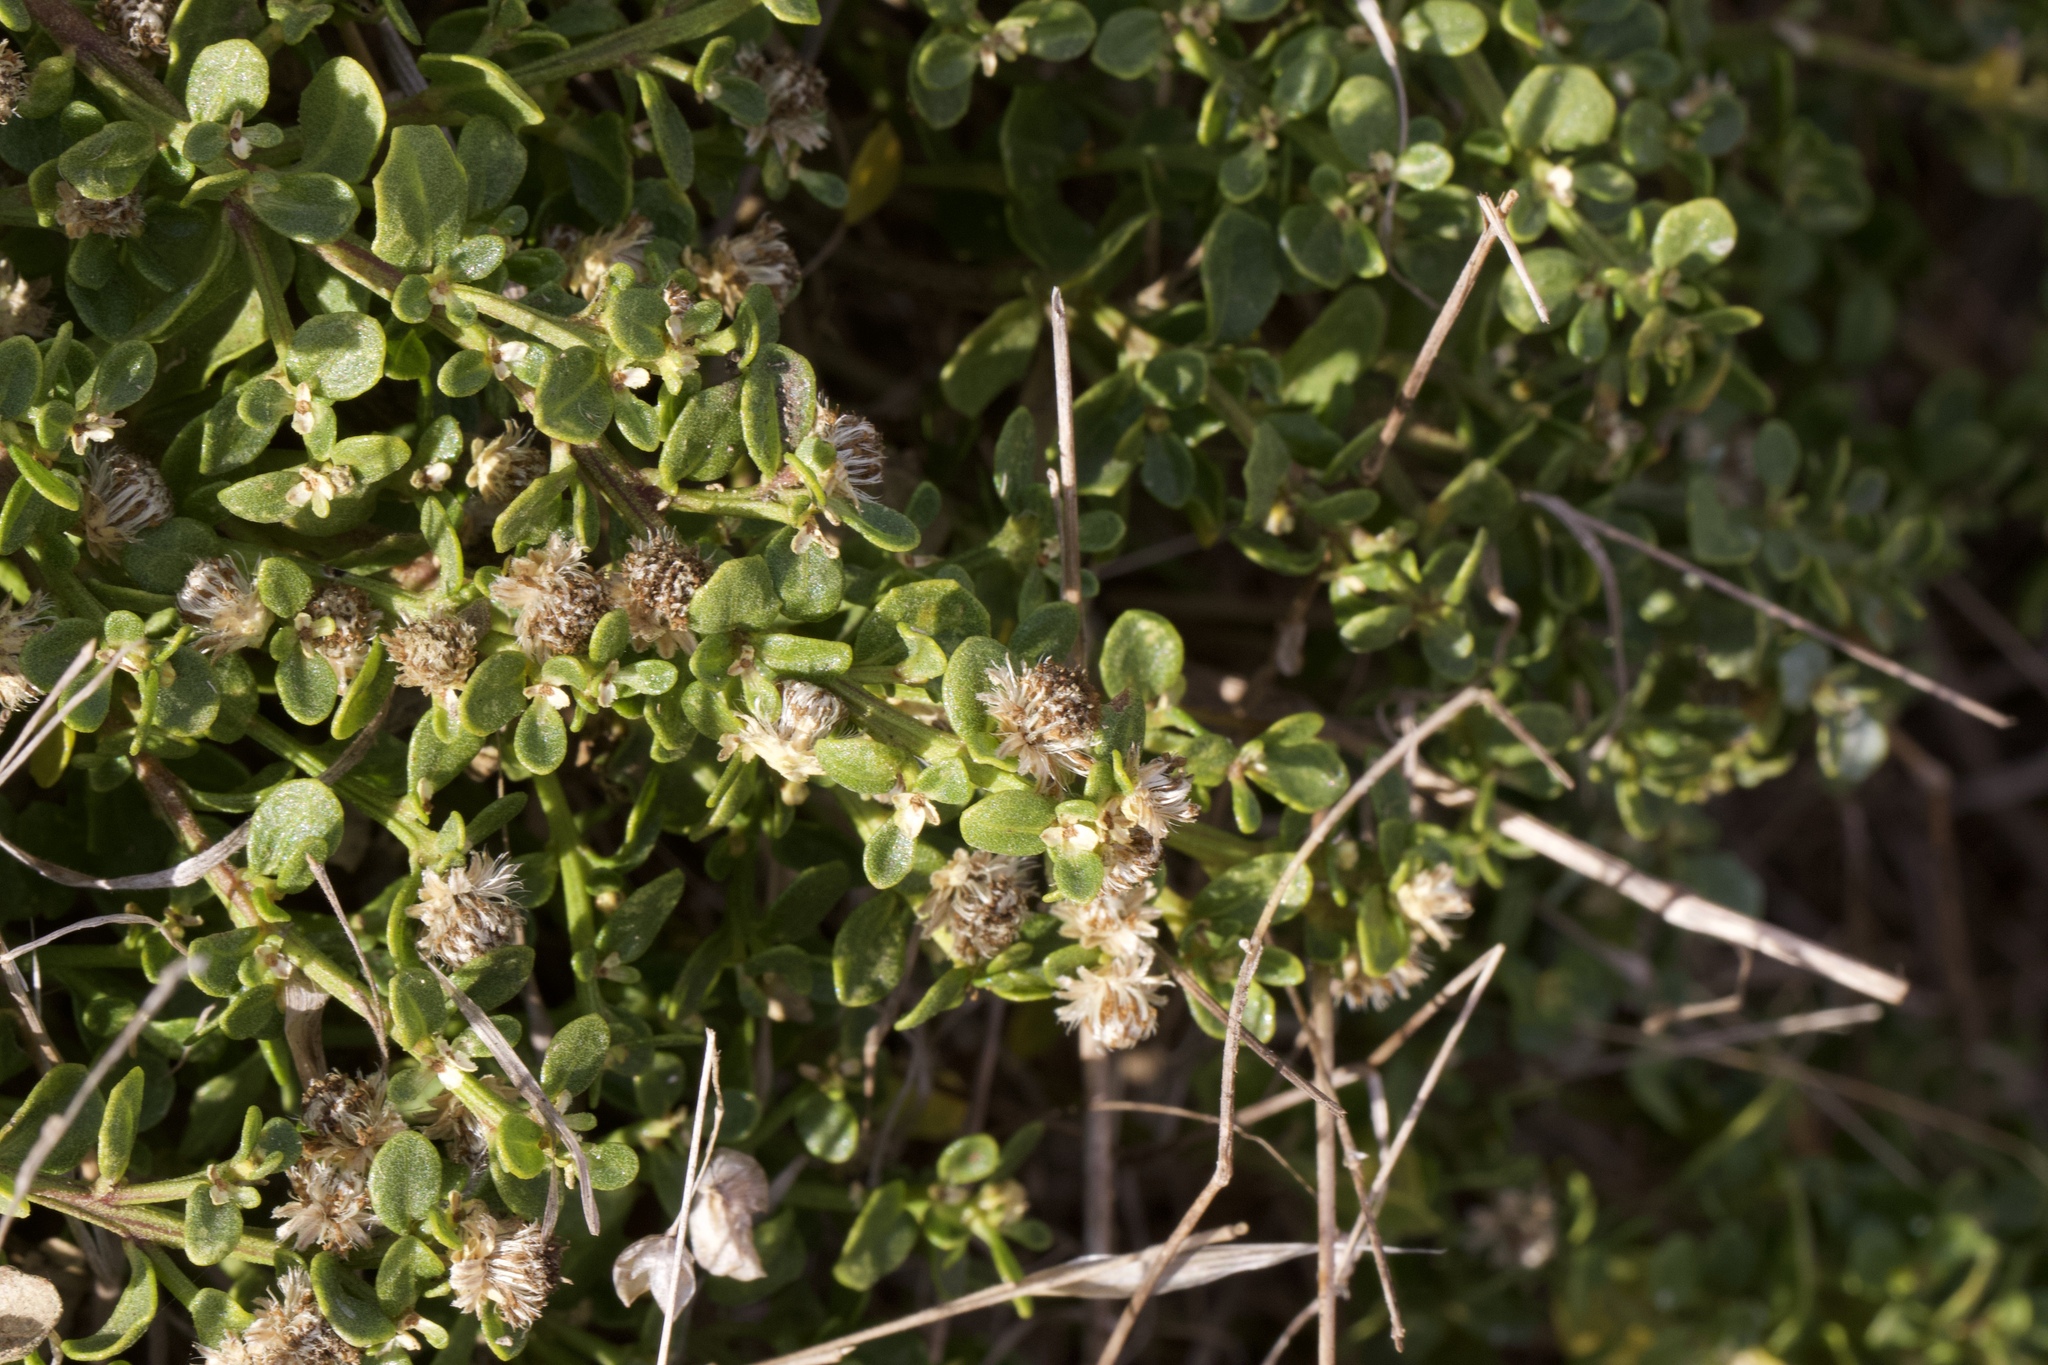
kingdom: Plantae
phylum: Tracheophyta
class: Magnoliopsida
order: Asterales
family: Asteraceae
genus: Baccharis
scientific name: Baccharis pilularis
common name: Coyotebrush
